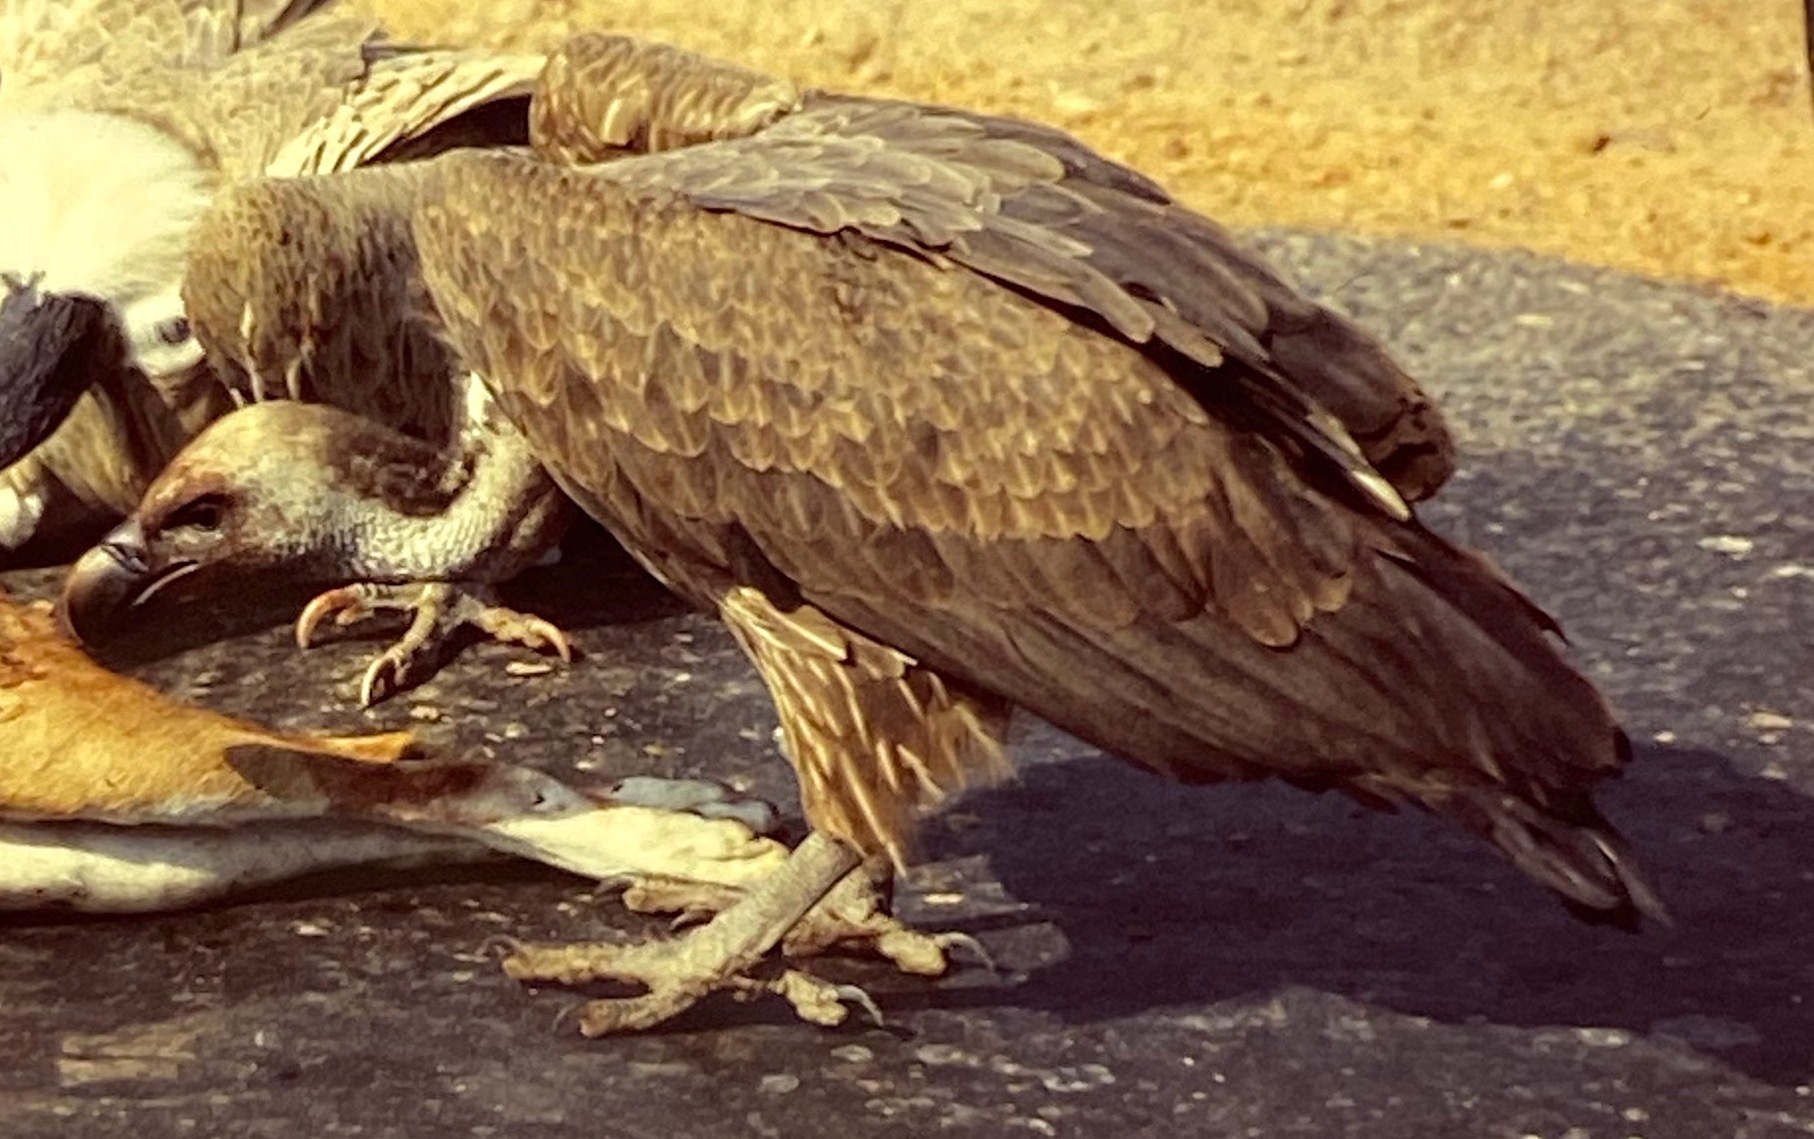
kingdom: Animalia
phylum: Chordata
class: Aves
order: Accipitriformes
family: Accipitridae
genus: Gyps
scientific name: Gyps bengalensis
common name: White-rumped vulture
